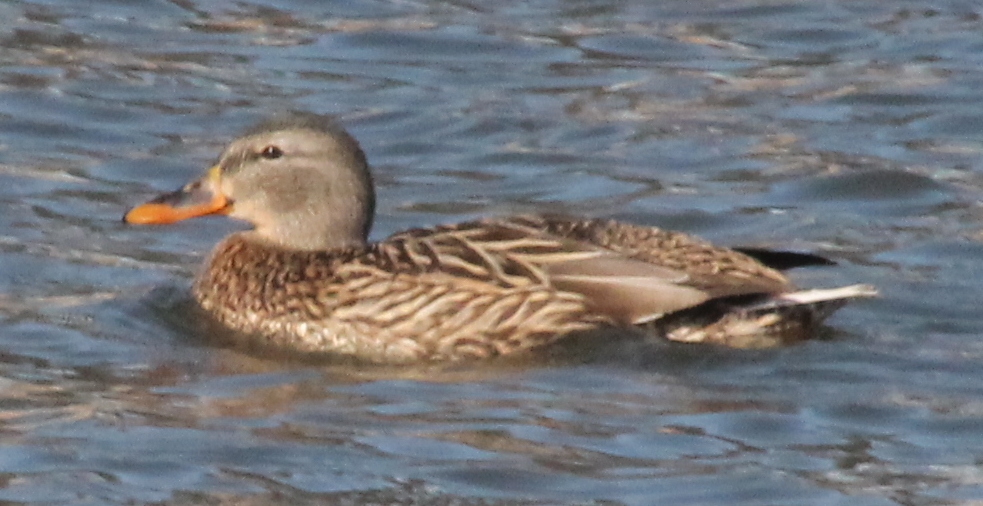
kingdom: Animalia
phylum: Chordata
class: Aves
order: Anseriformes
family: Anatidae
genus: Anas
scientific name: Anas platyrhynchos
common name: Mallard
